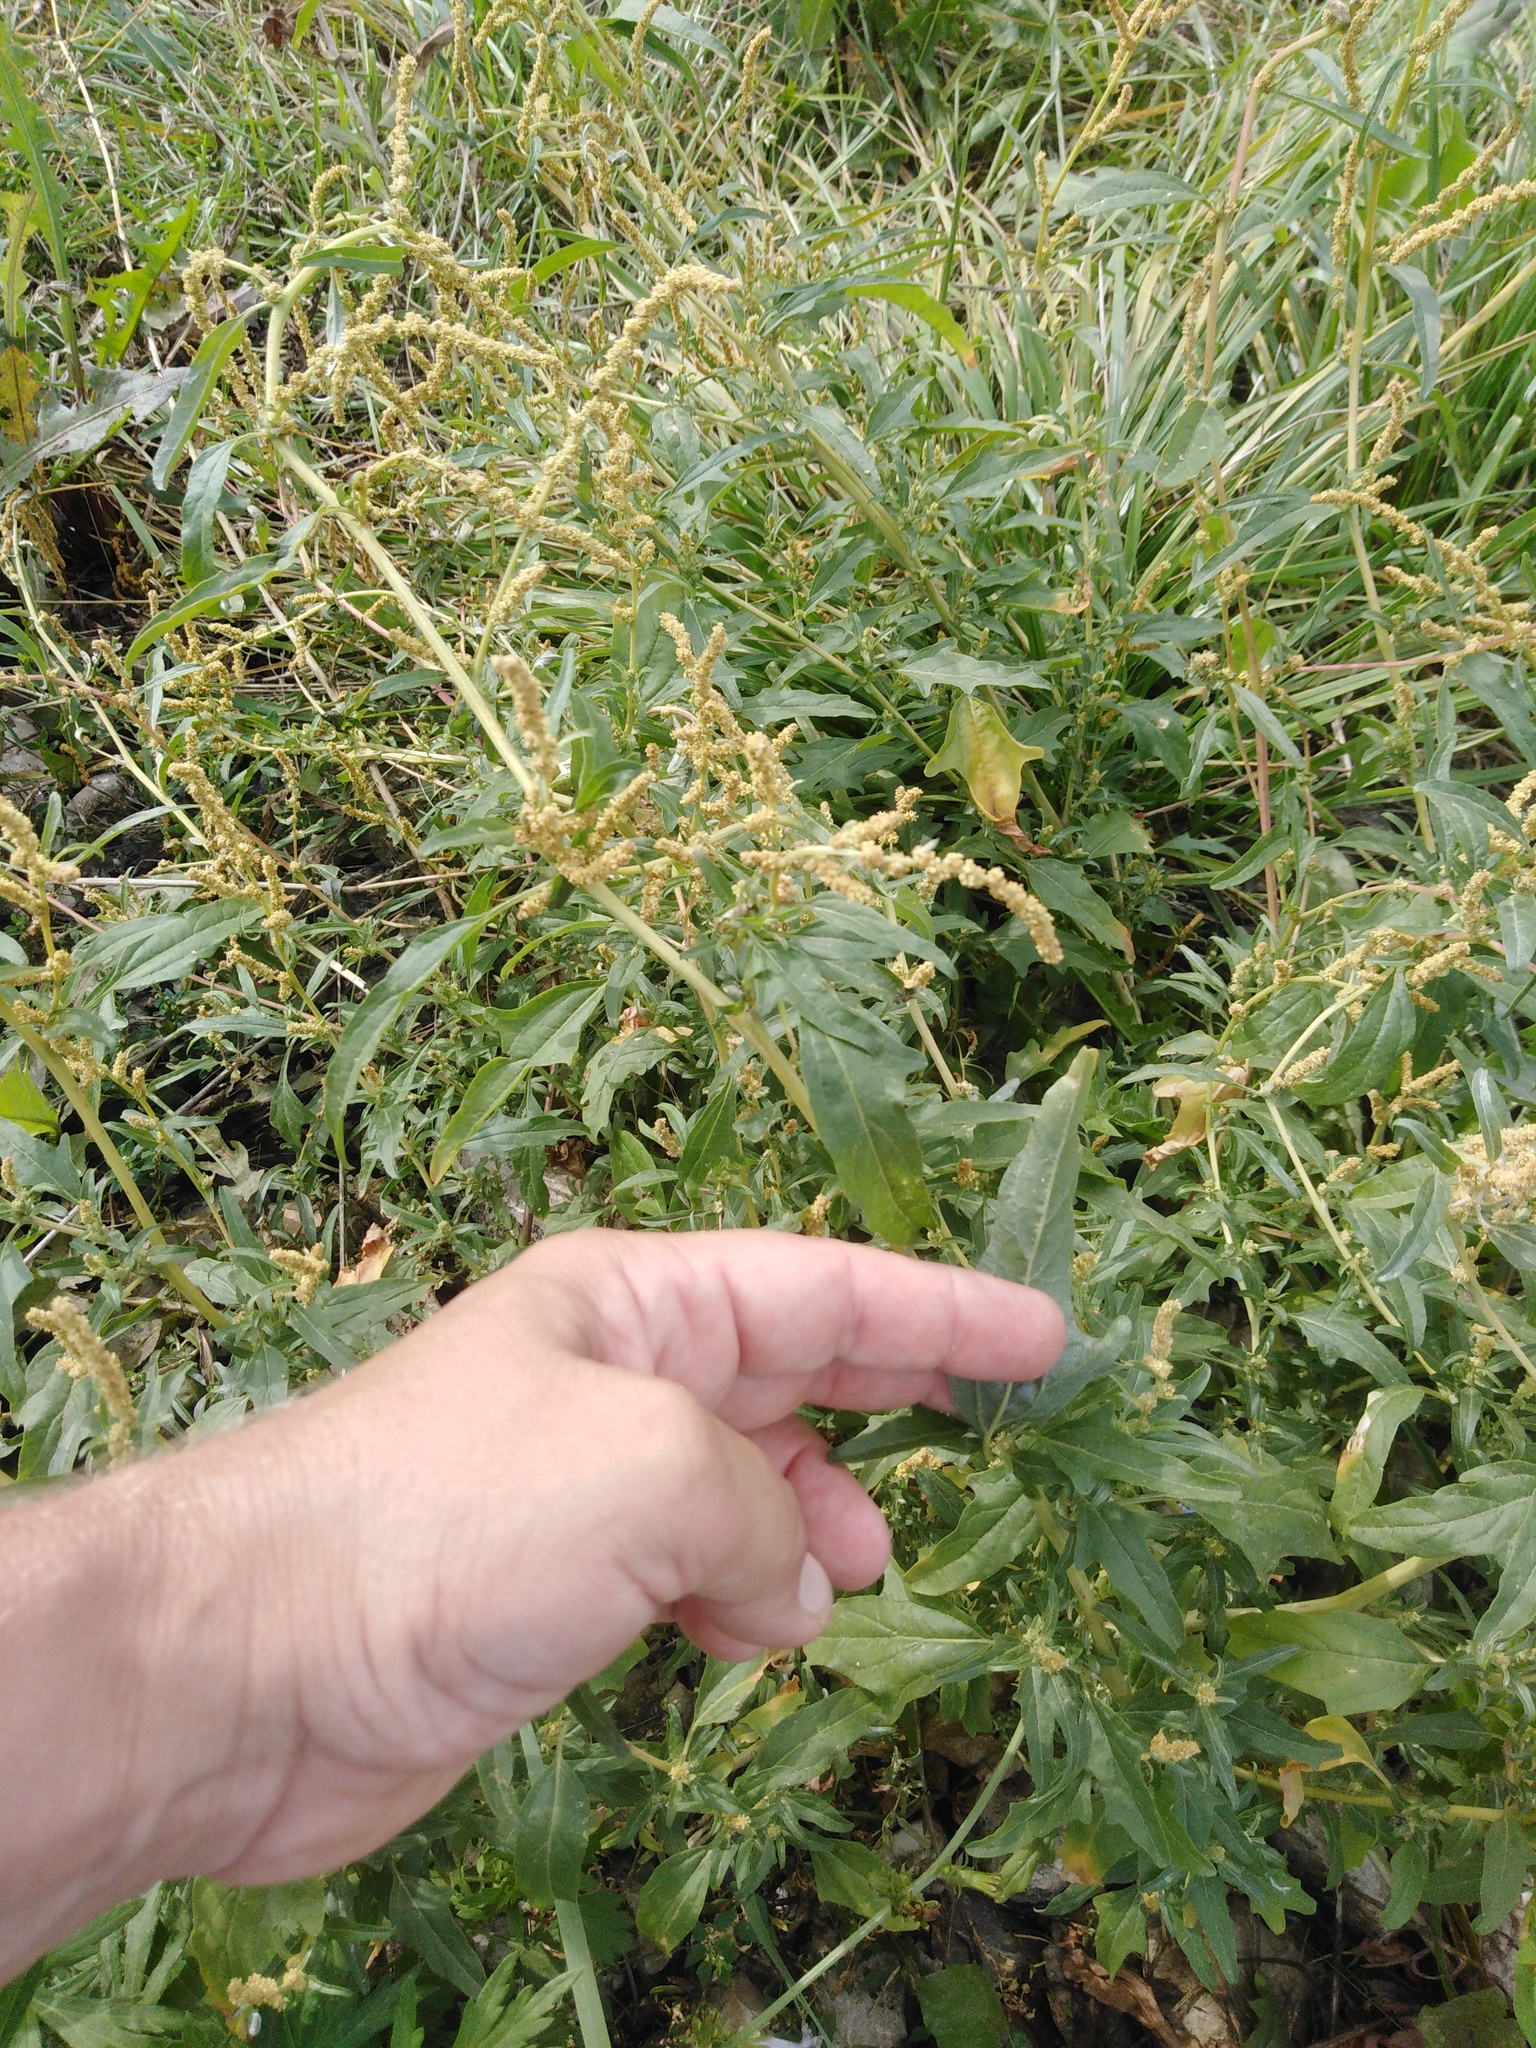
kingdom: Plantae
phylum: Tracheophyta
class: Magnoliopsida
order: Caryophyllales
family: Amaranthaceae
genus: Atriplex
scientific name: Atriplex tatarica
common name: Tatarian orache
